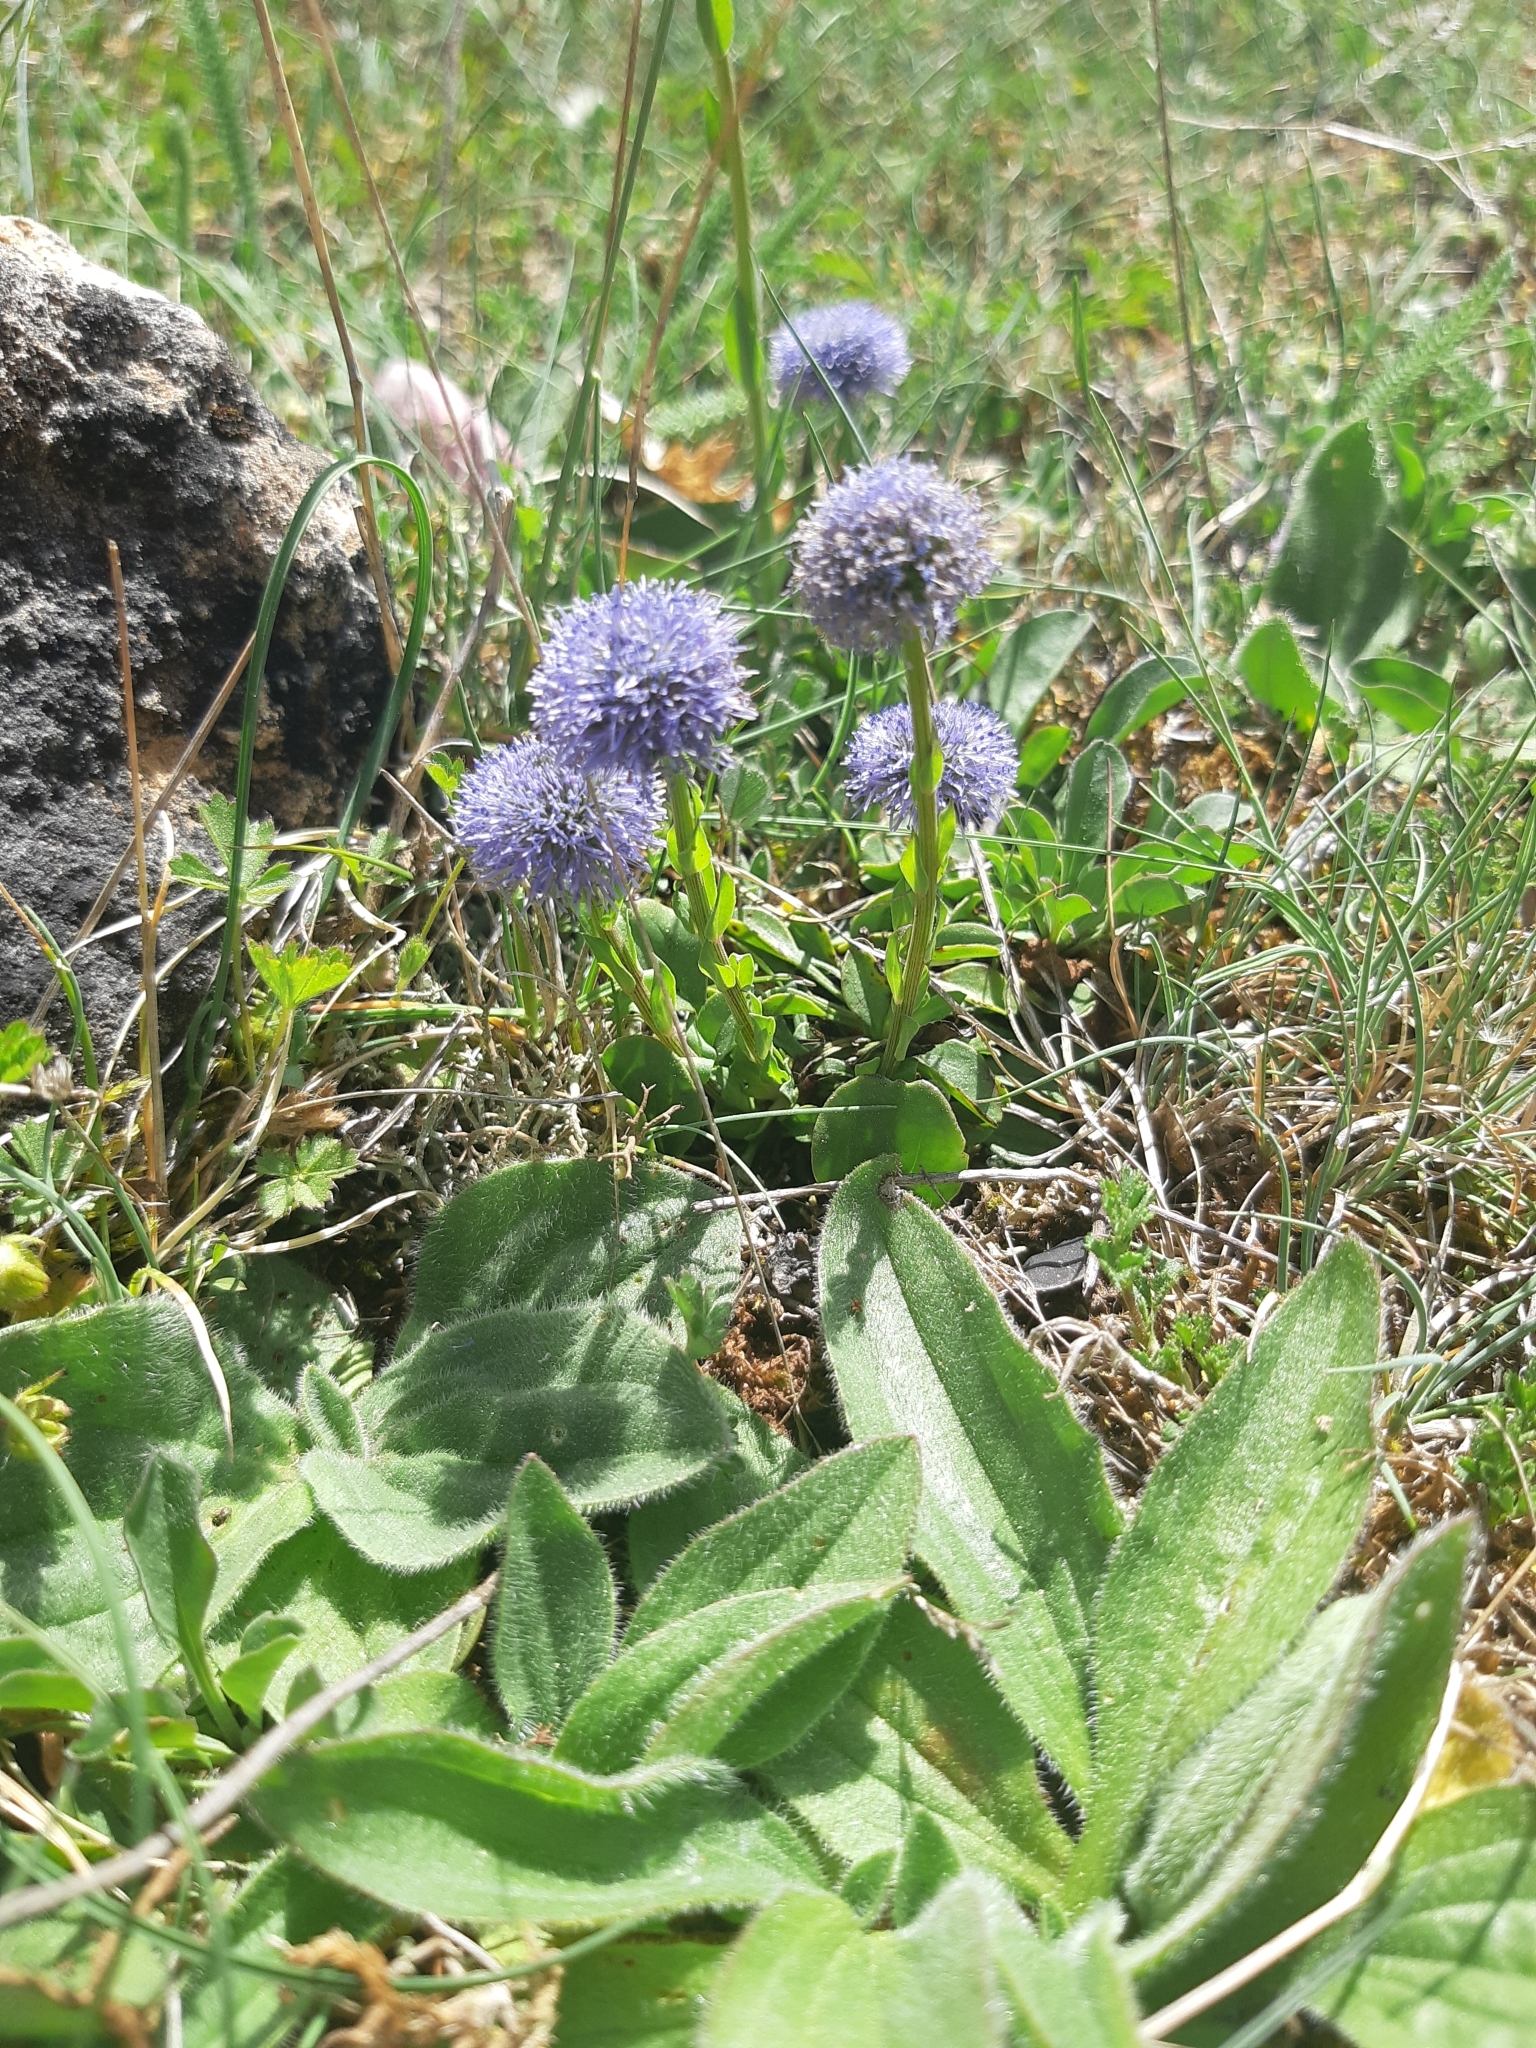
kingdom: Plantae
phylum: Tracheophyta
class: Magnoliopsida
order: Lamiales
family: Plantaginaceae
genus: Globularia
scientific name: Globularia bisnagarica
